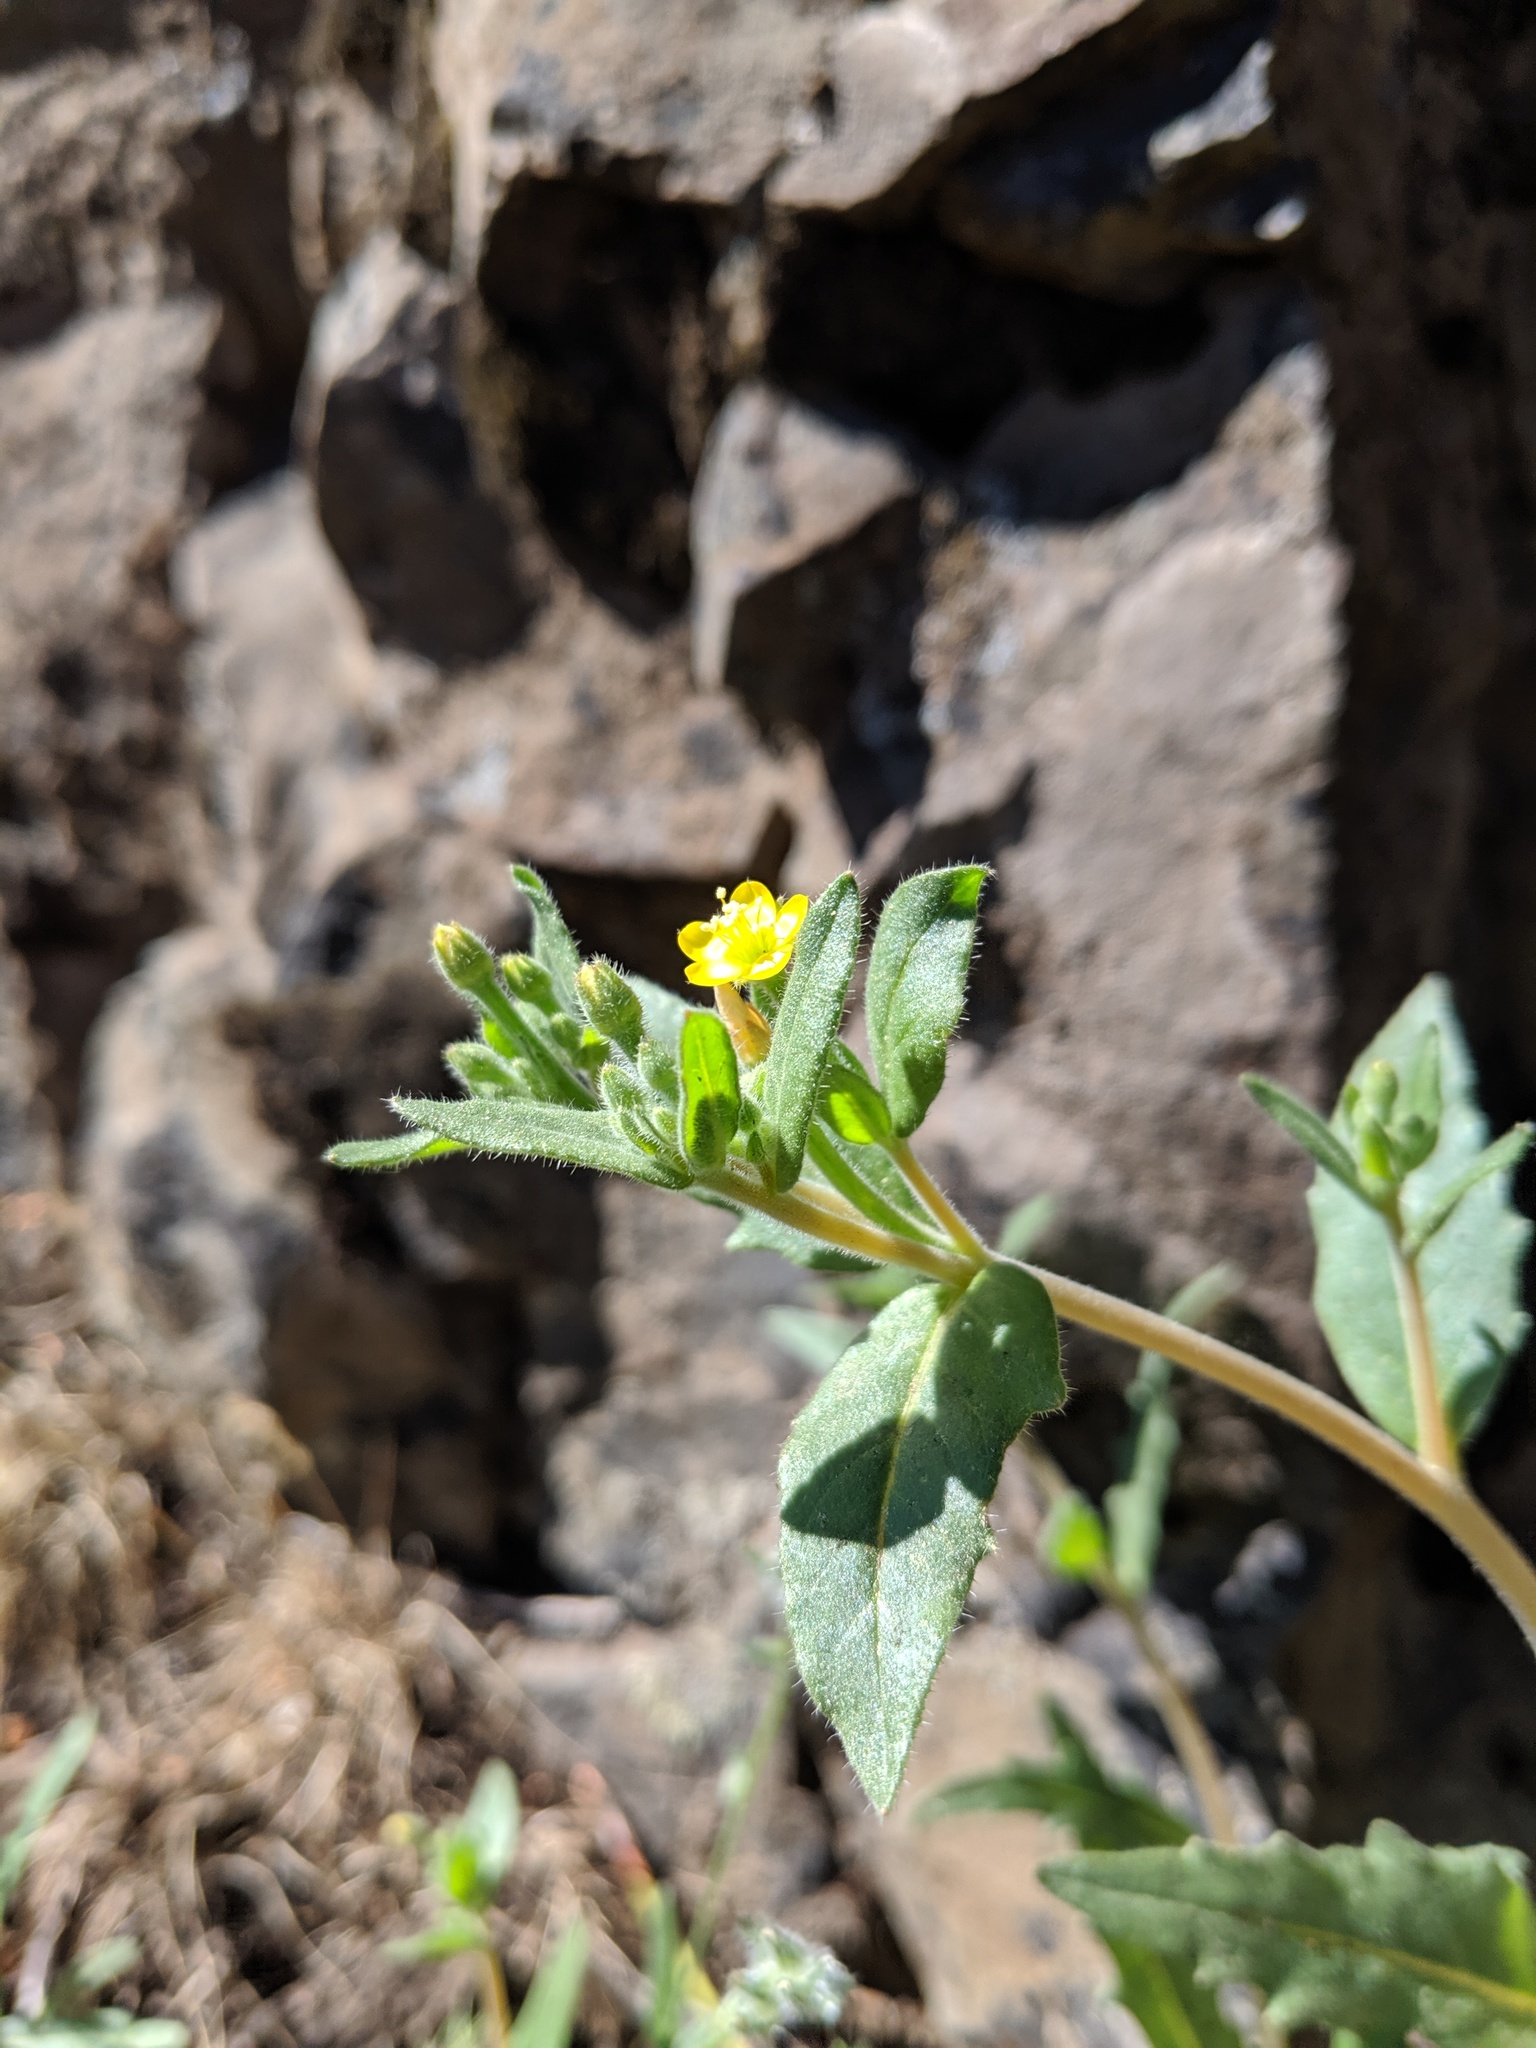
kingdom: Plantae
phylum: Tracheophyta
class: Magnoliopsida
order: Cornales
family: Loasaceae
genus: Mentzelia
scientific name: Mentzelia albicaulis
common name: White-stem blazingstar
